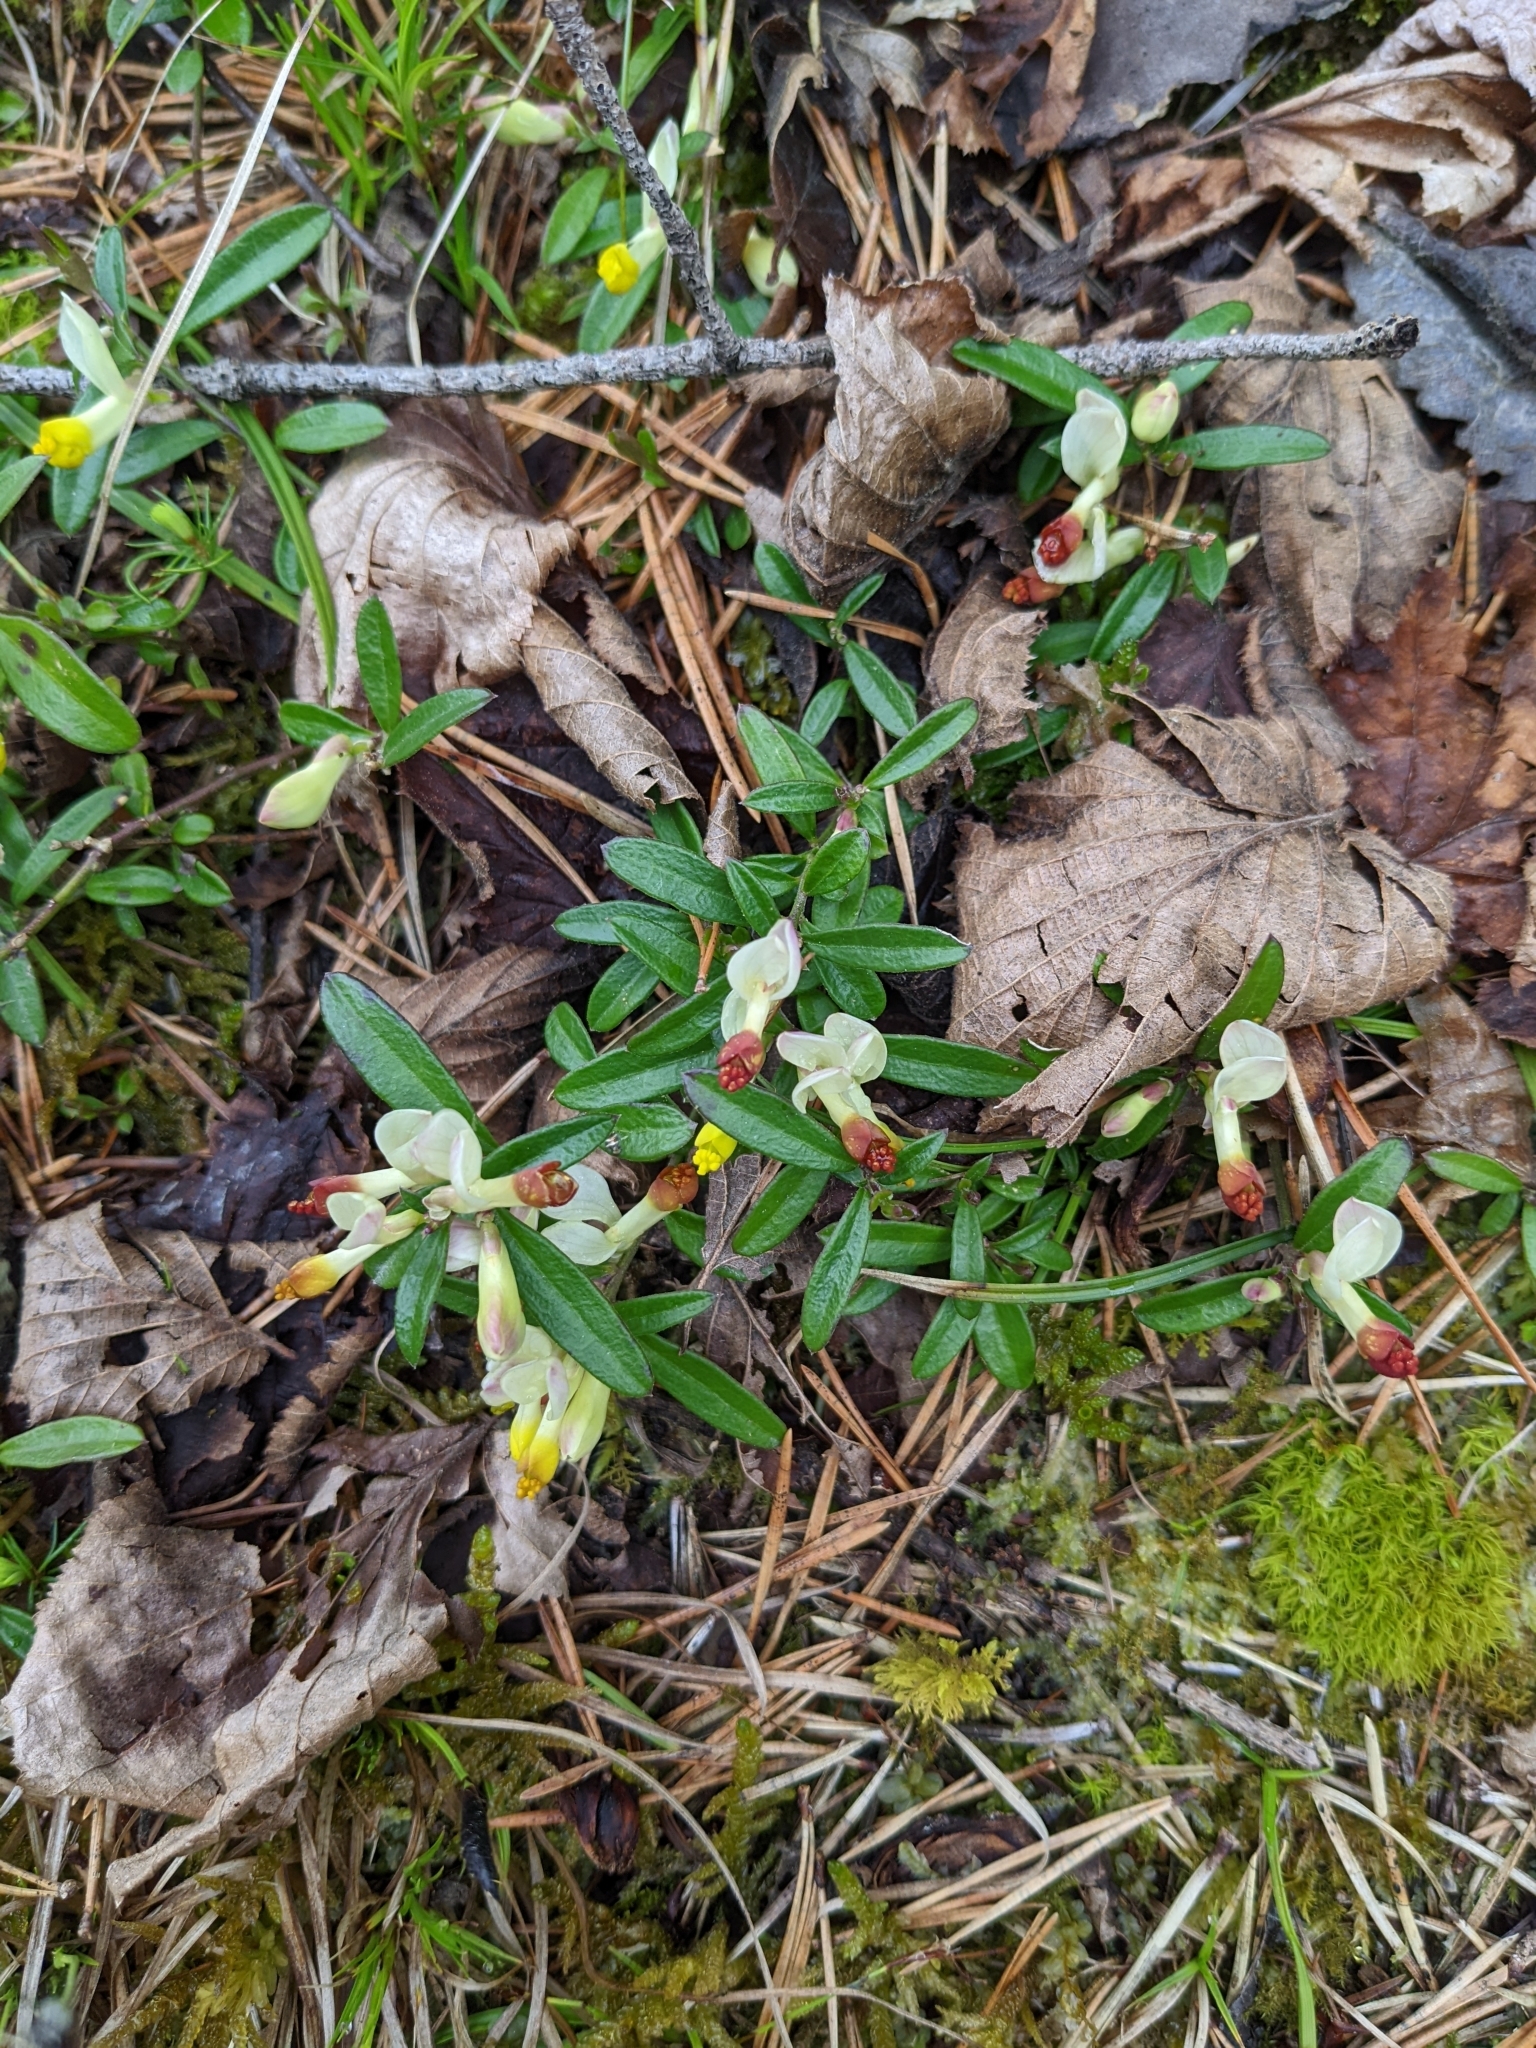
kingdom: Plantae
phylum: Tracheophyta
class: Magnoliopsida
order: Fabales
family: Polygalaceae
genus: Polygaloides
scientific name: Polygaloides chamaebuxus
